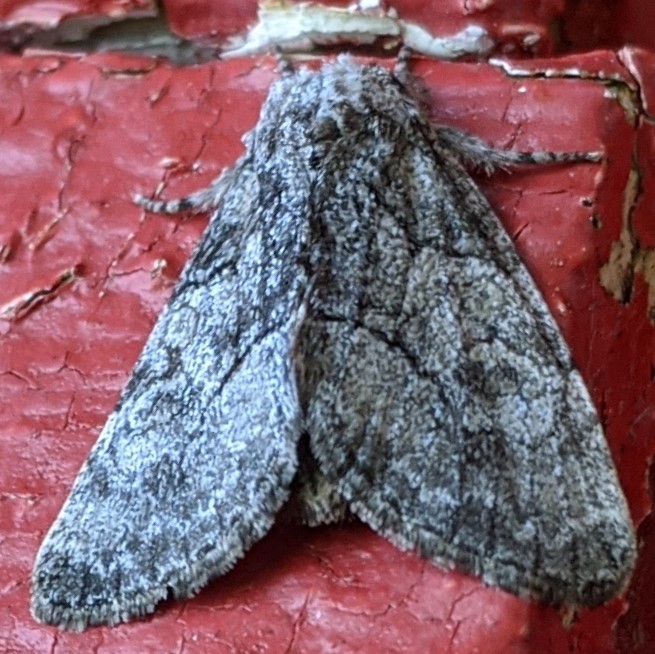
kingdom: Animalia
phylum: Arthropoda
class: Insecta
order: Lepidoptera
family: Noctuidae
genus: Raphia
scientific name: Raphia frater
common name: Brother
